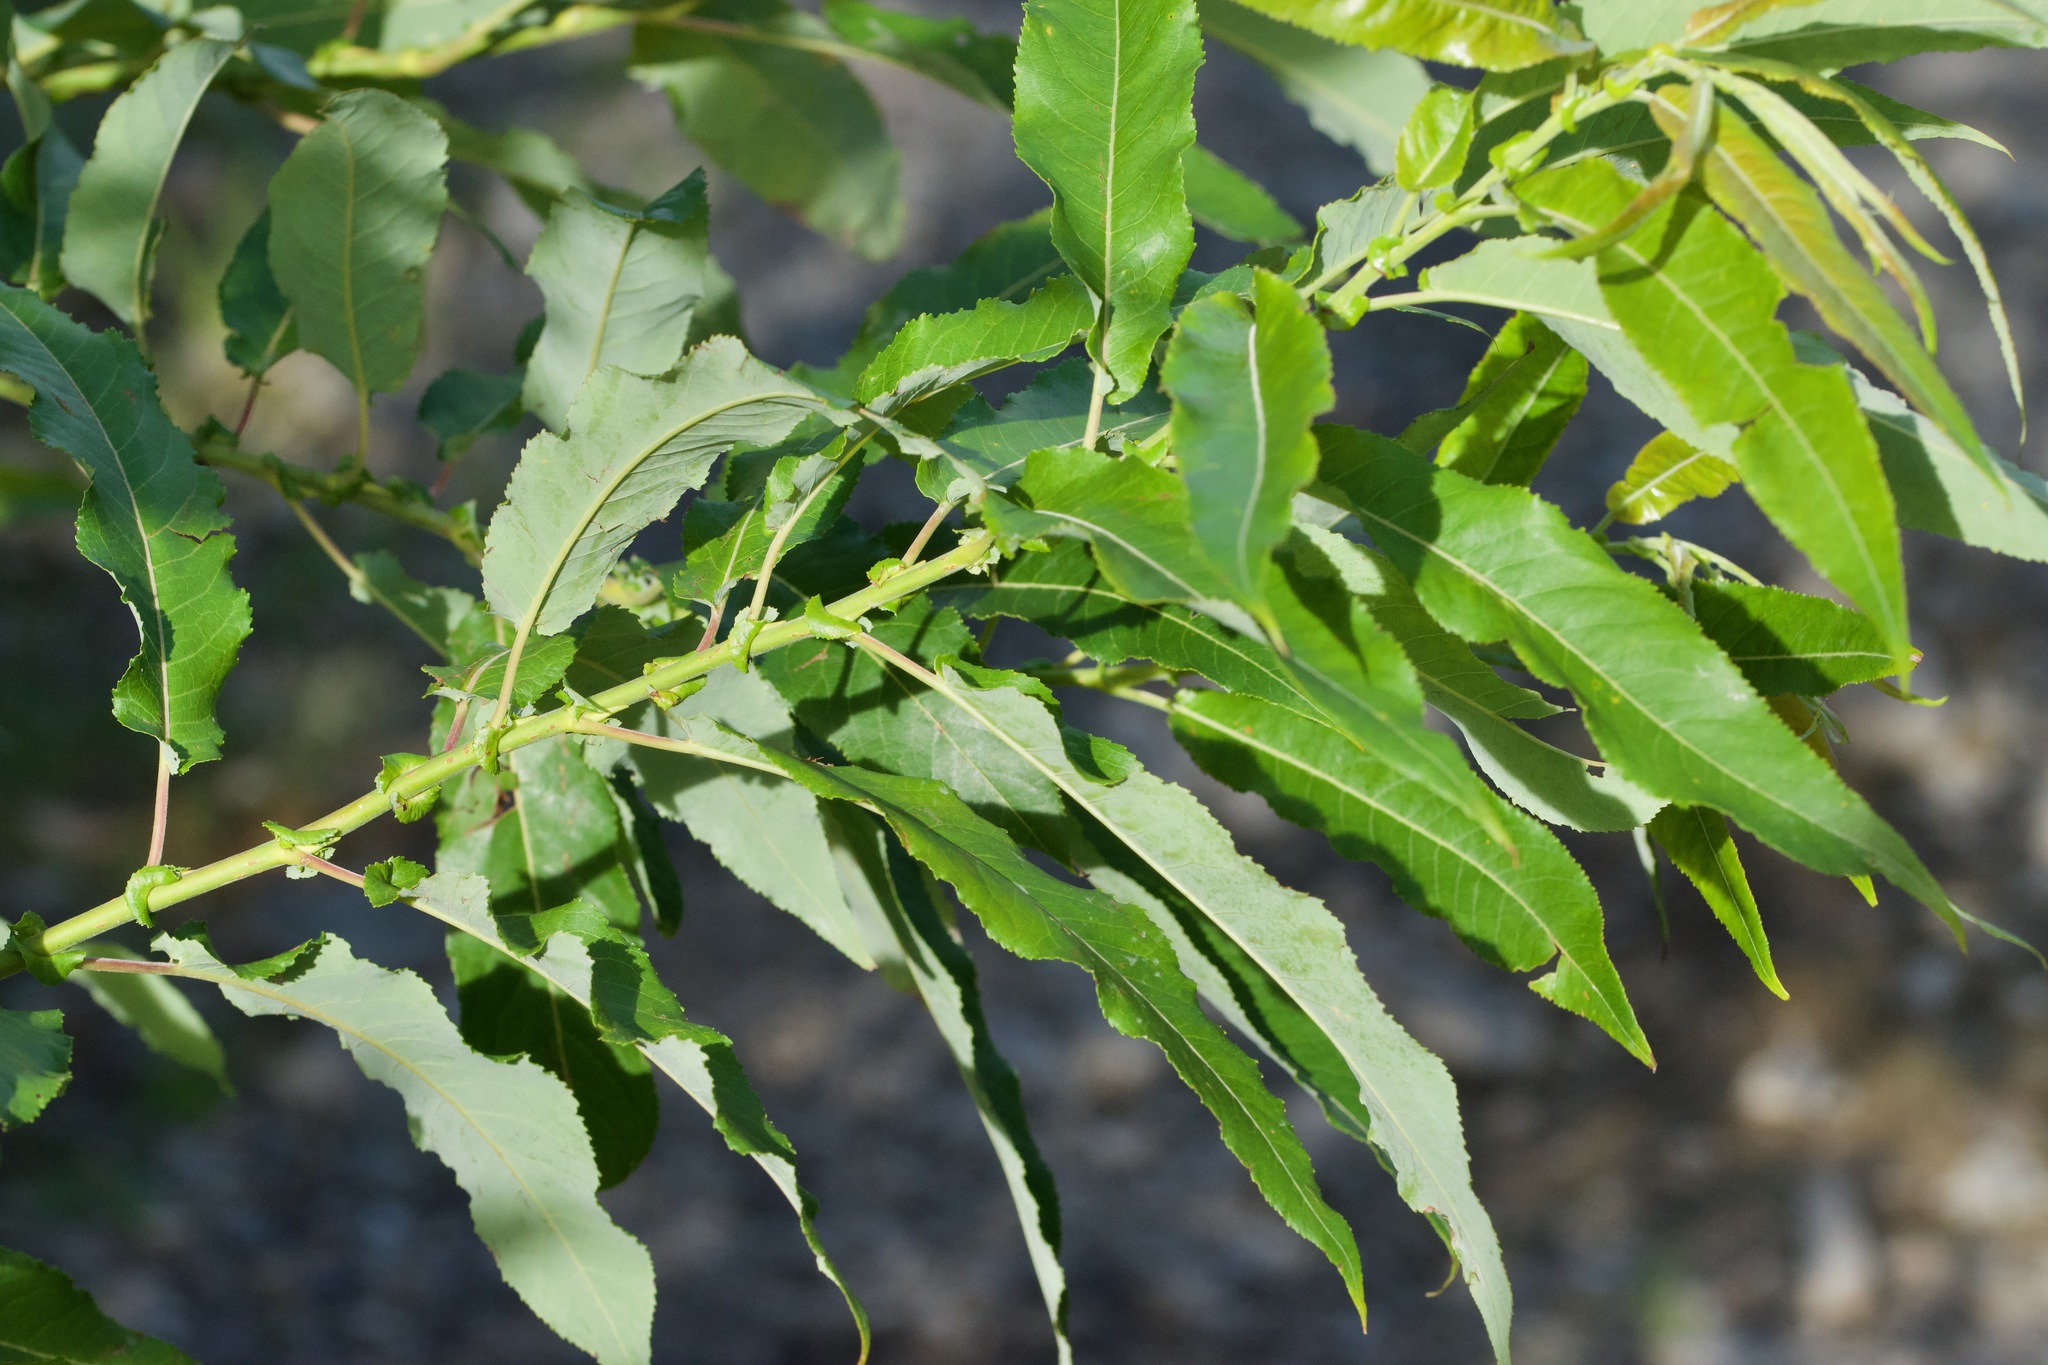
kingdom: Plantae
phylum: Tracheophyta
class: Magnoliopsida
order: Malpighiales
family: Salicaceae
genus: Salix
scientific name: Salix eriocephala
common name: Heart-leaved willow
